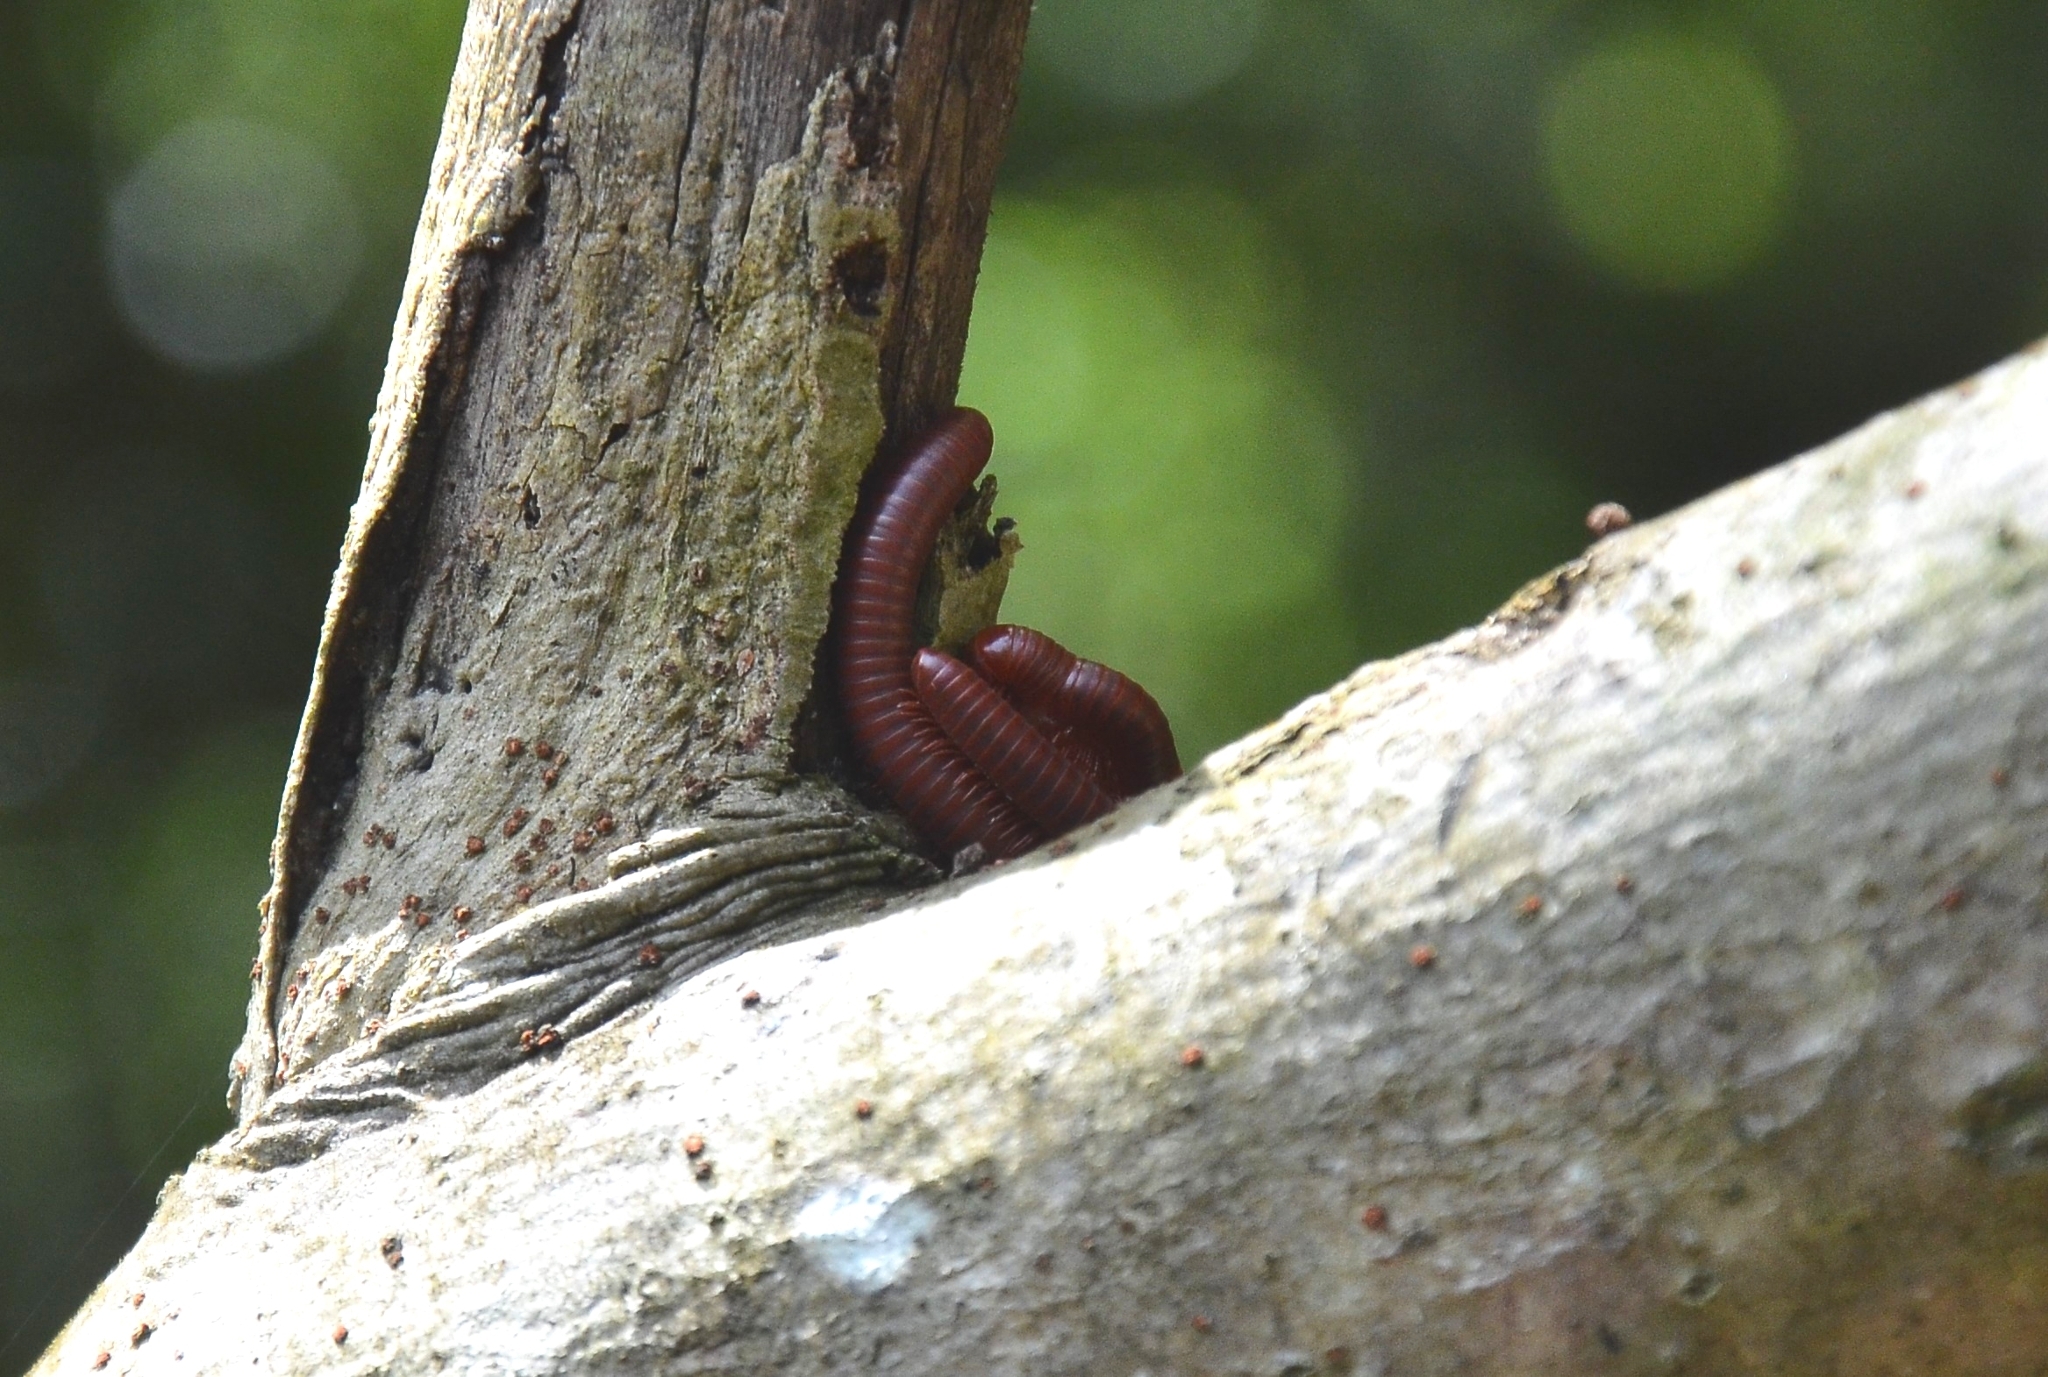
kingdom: Animalia
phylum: Arthropoda
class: Diplopoda
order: Spirobolida
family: Pachybolidae
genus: Trigoniulus
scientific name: Trigoniulus corallinus
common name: Millipede
